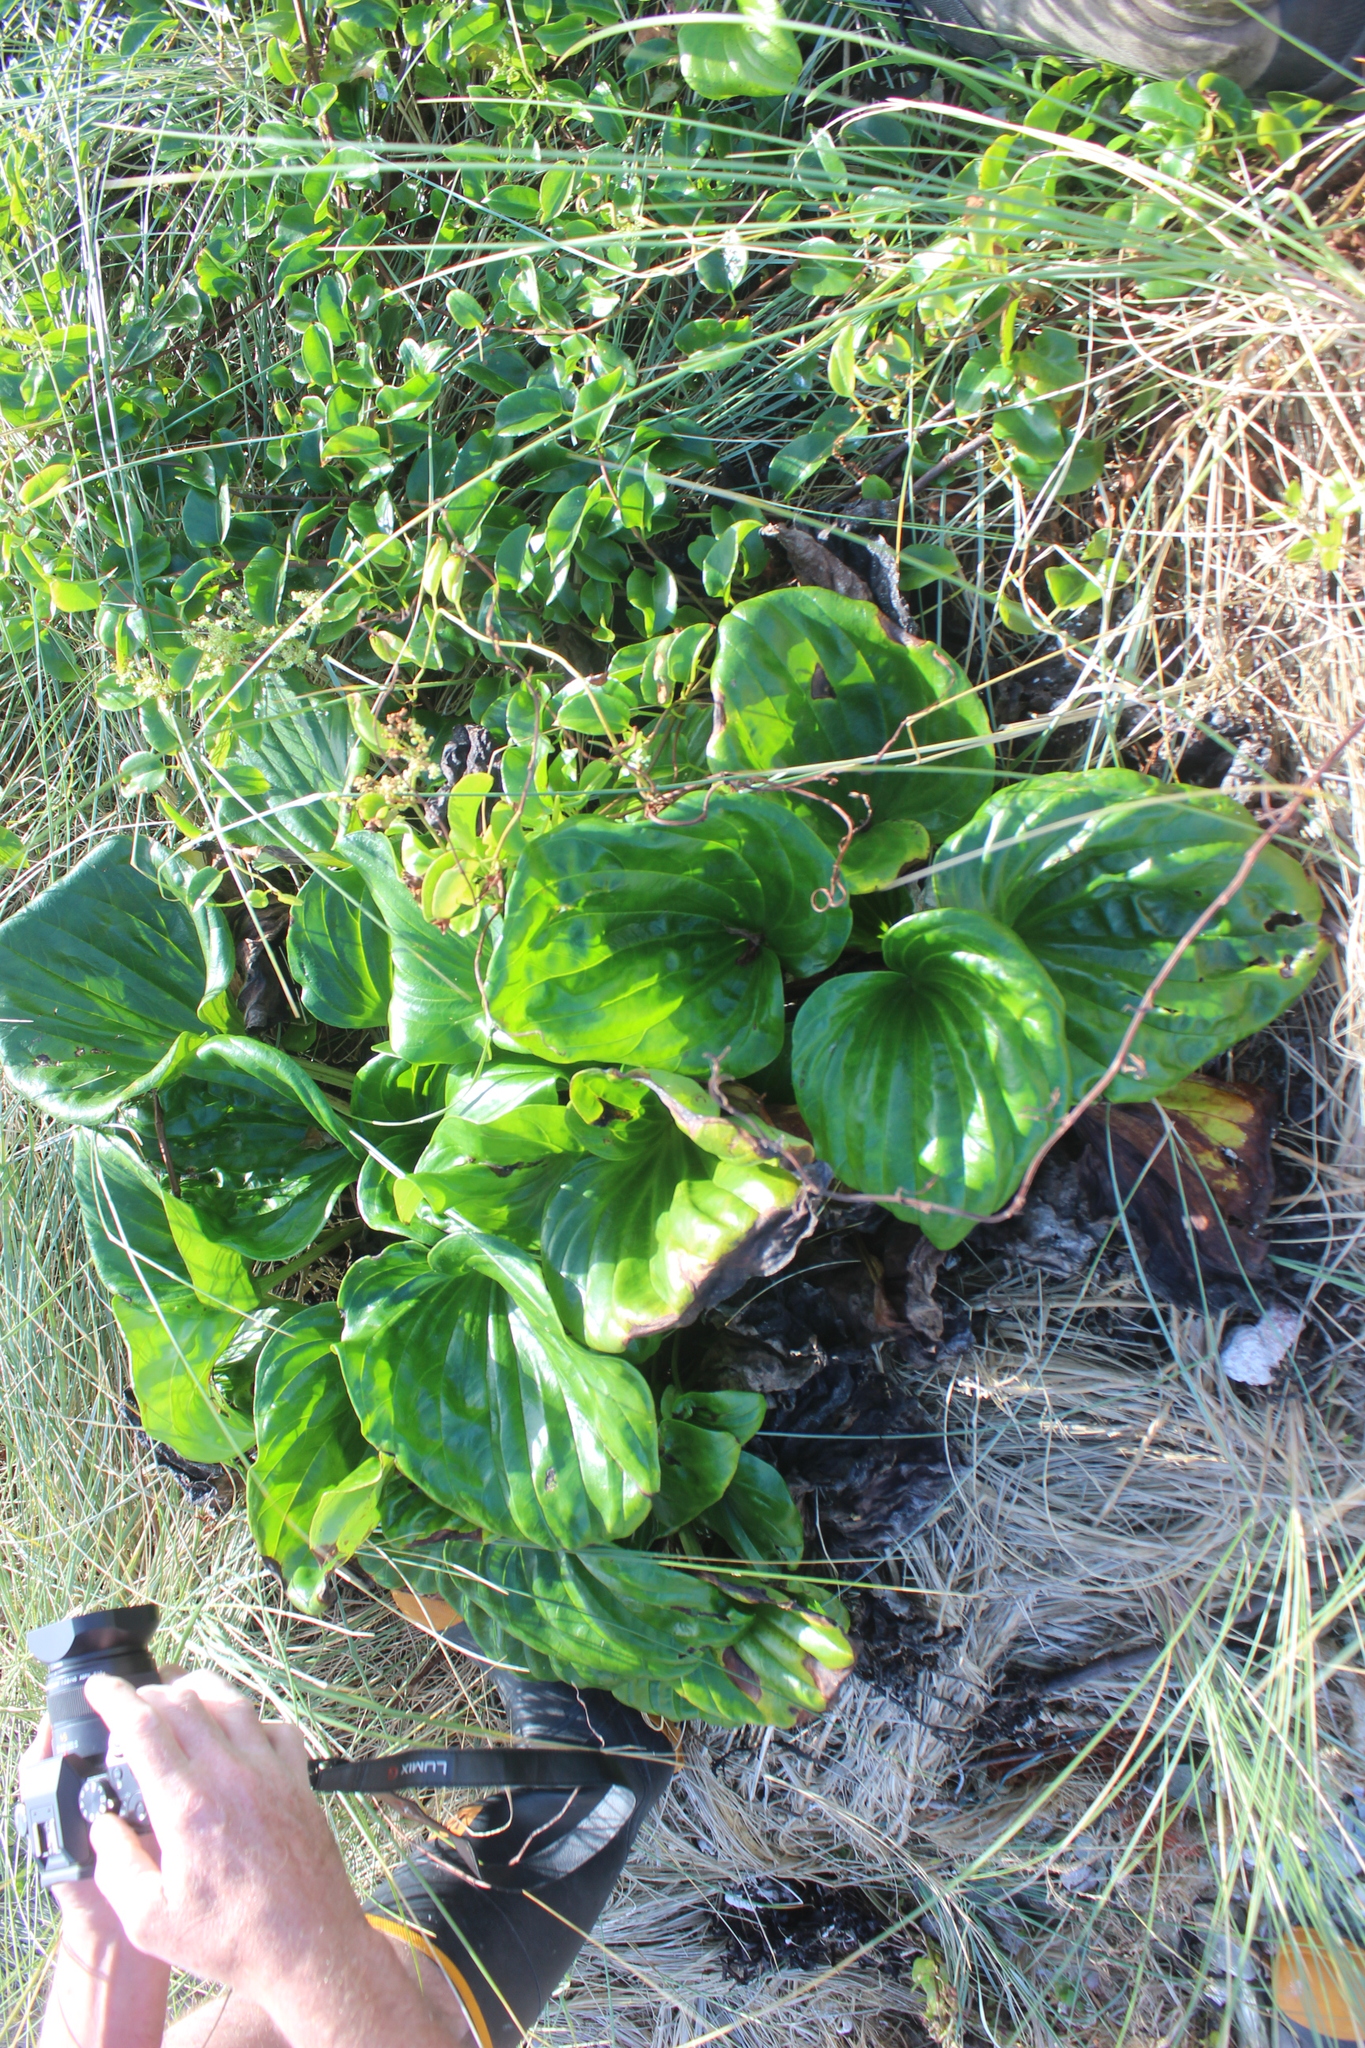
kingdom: Plantae
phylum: Tracheophyta
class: Magnoliopsida
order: Boraginales
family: Boraginaceae
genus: Myosotidium
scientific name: Myosotidium hortensia
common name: Giant forget-me-not
